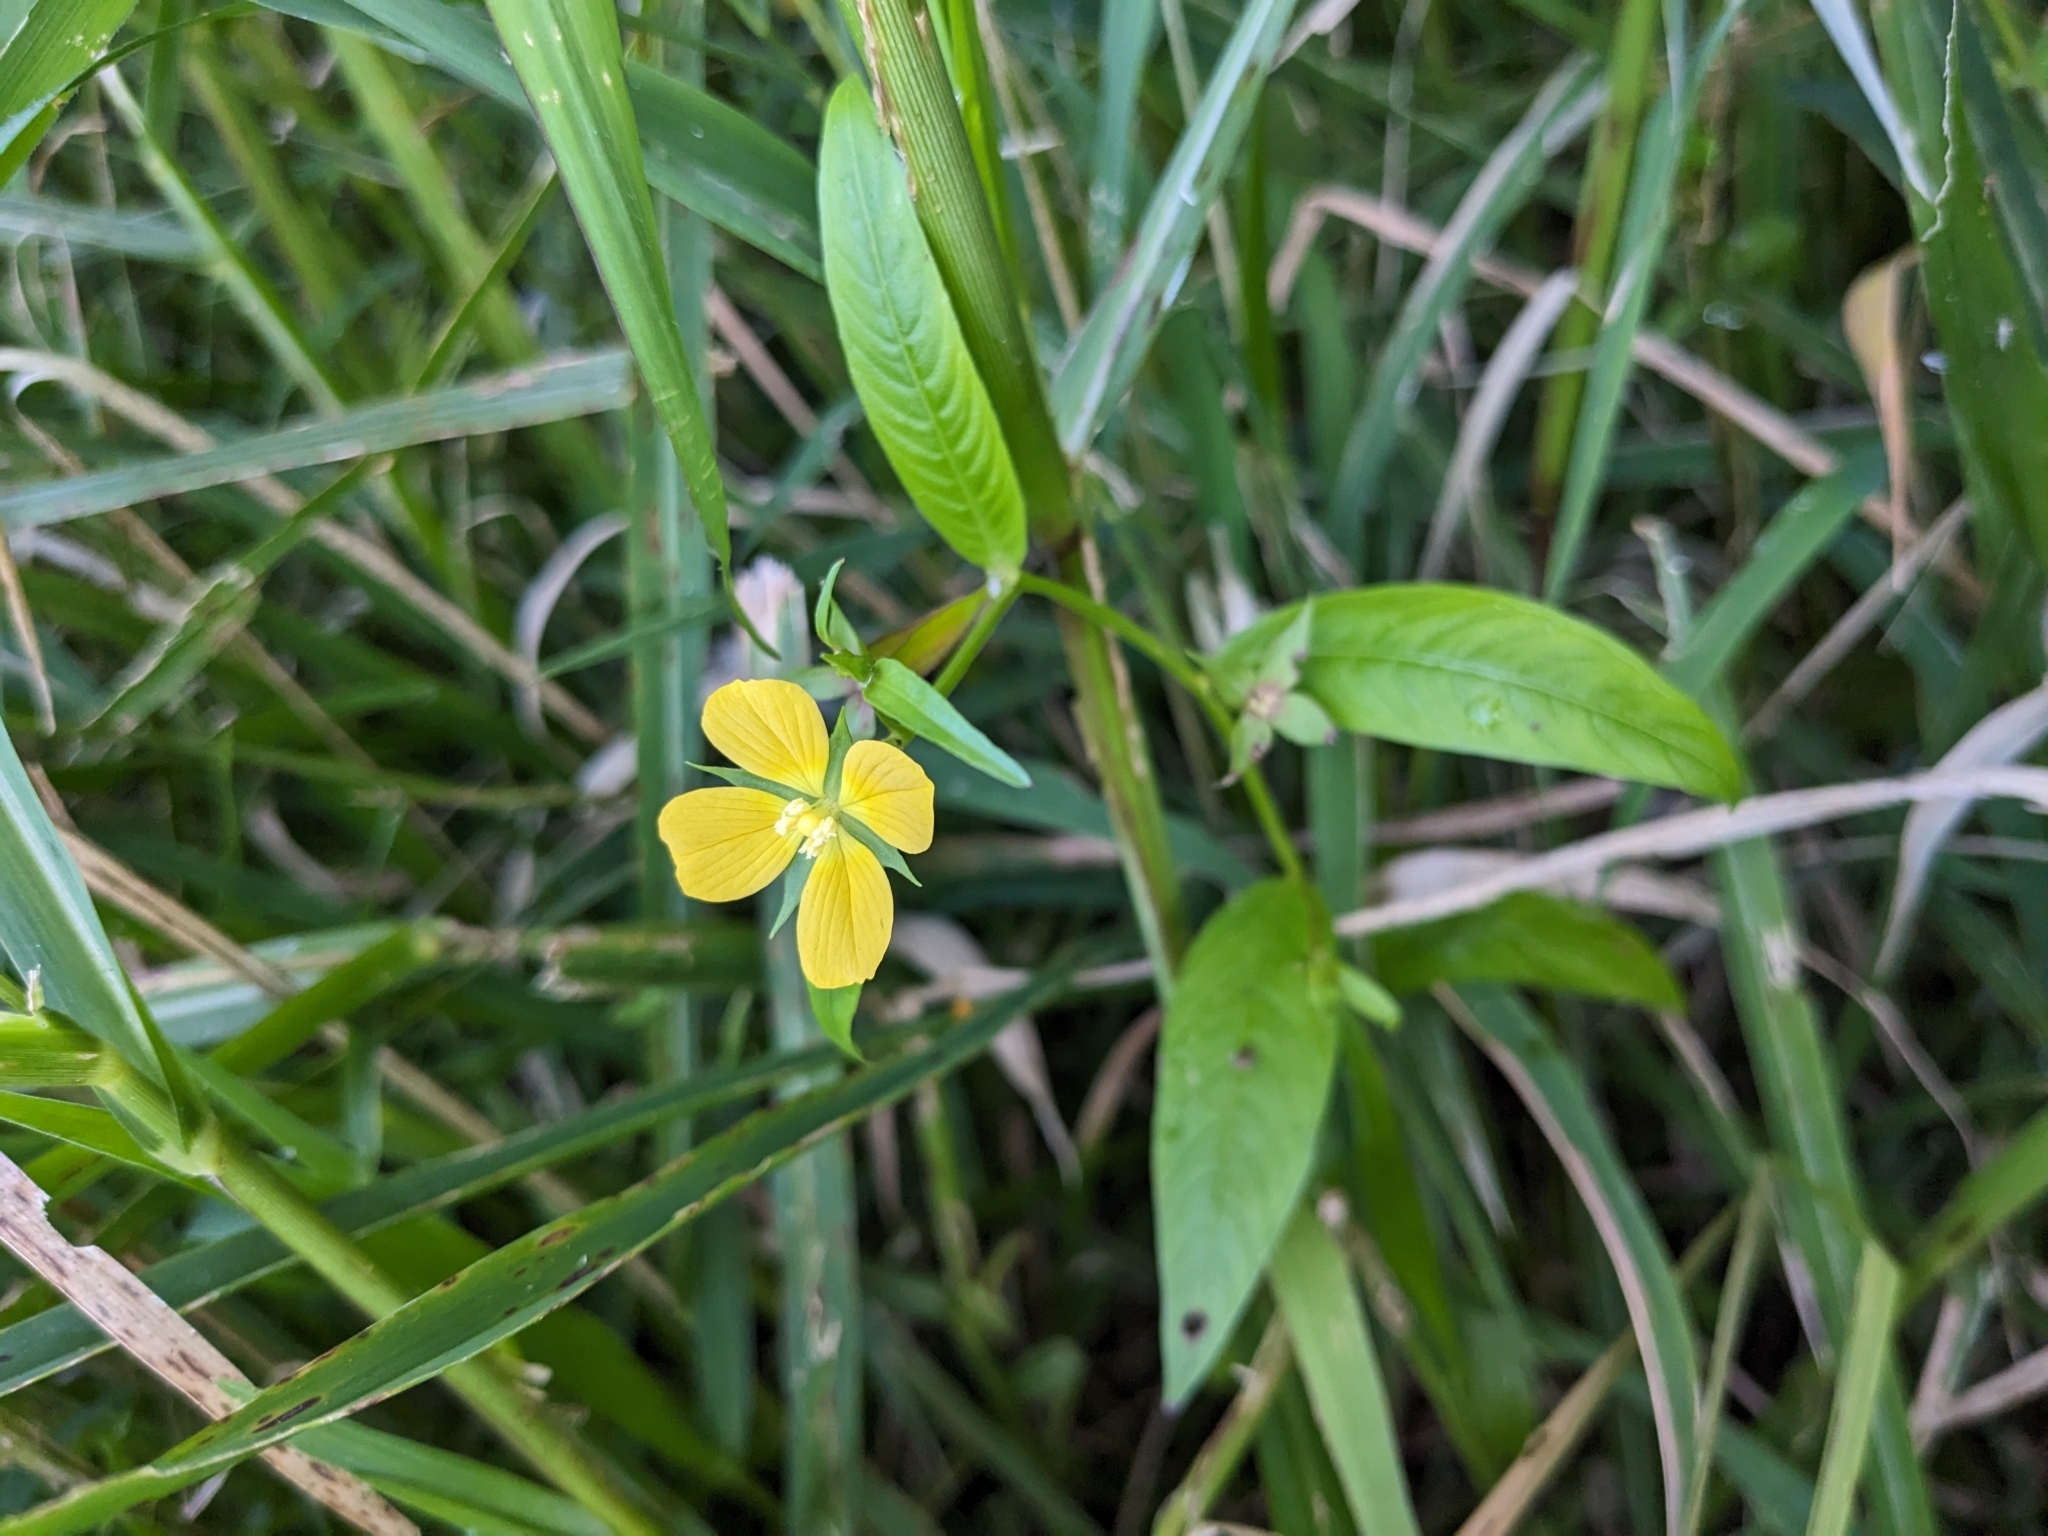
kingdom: Plantae
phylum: Tracheophyta
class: Magnoliopsida
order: Myrtales
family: Onagraceae
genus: Ludwigia
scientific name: Ludwigia decurrens
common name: Winged water-primrose
